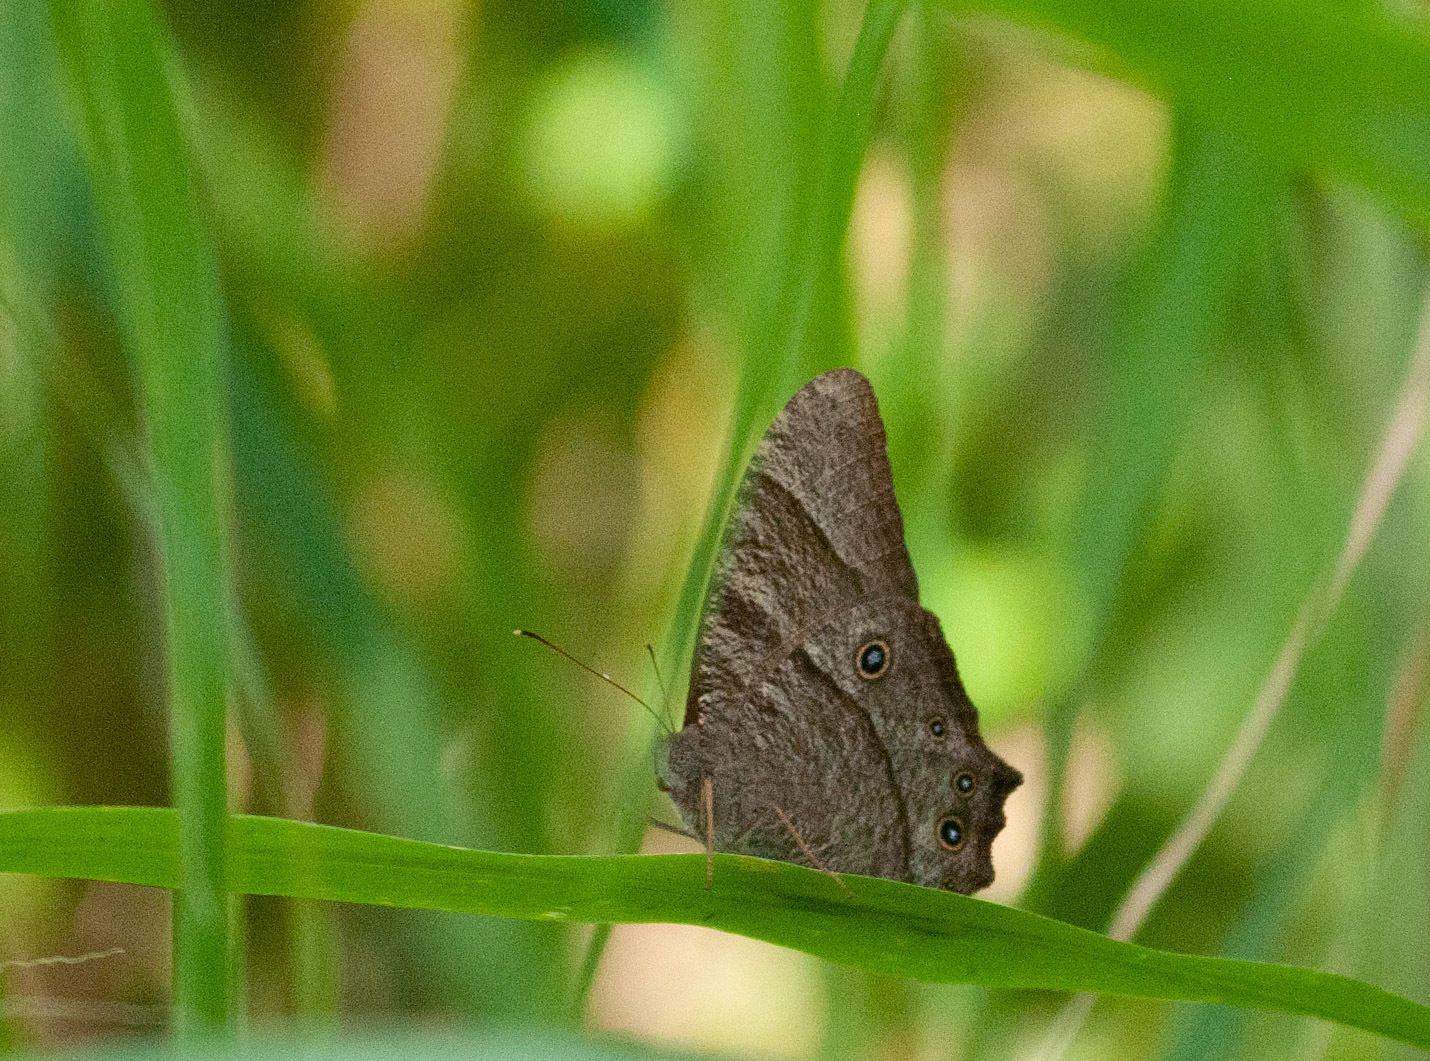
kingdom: Animalia
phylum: Arthropoda
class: Insecta
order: Lepidoptera
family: Nymphalidae
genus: Melanitis
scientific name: Melanitis leda
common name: Twilight brown
